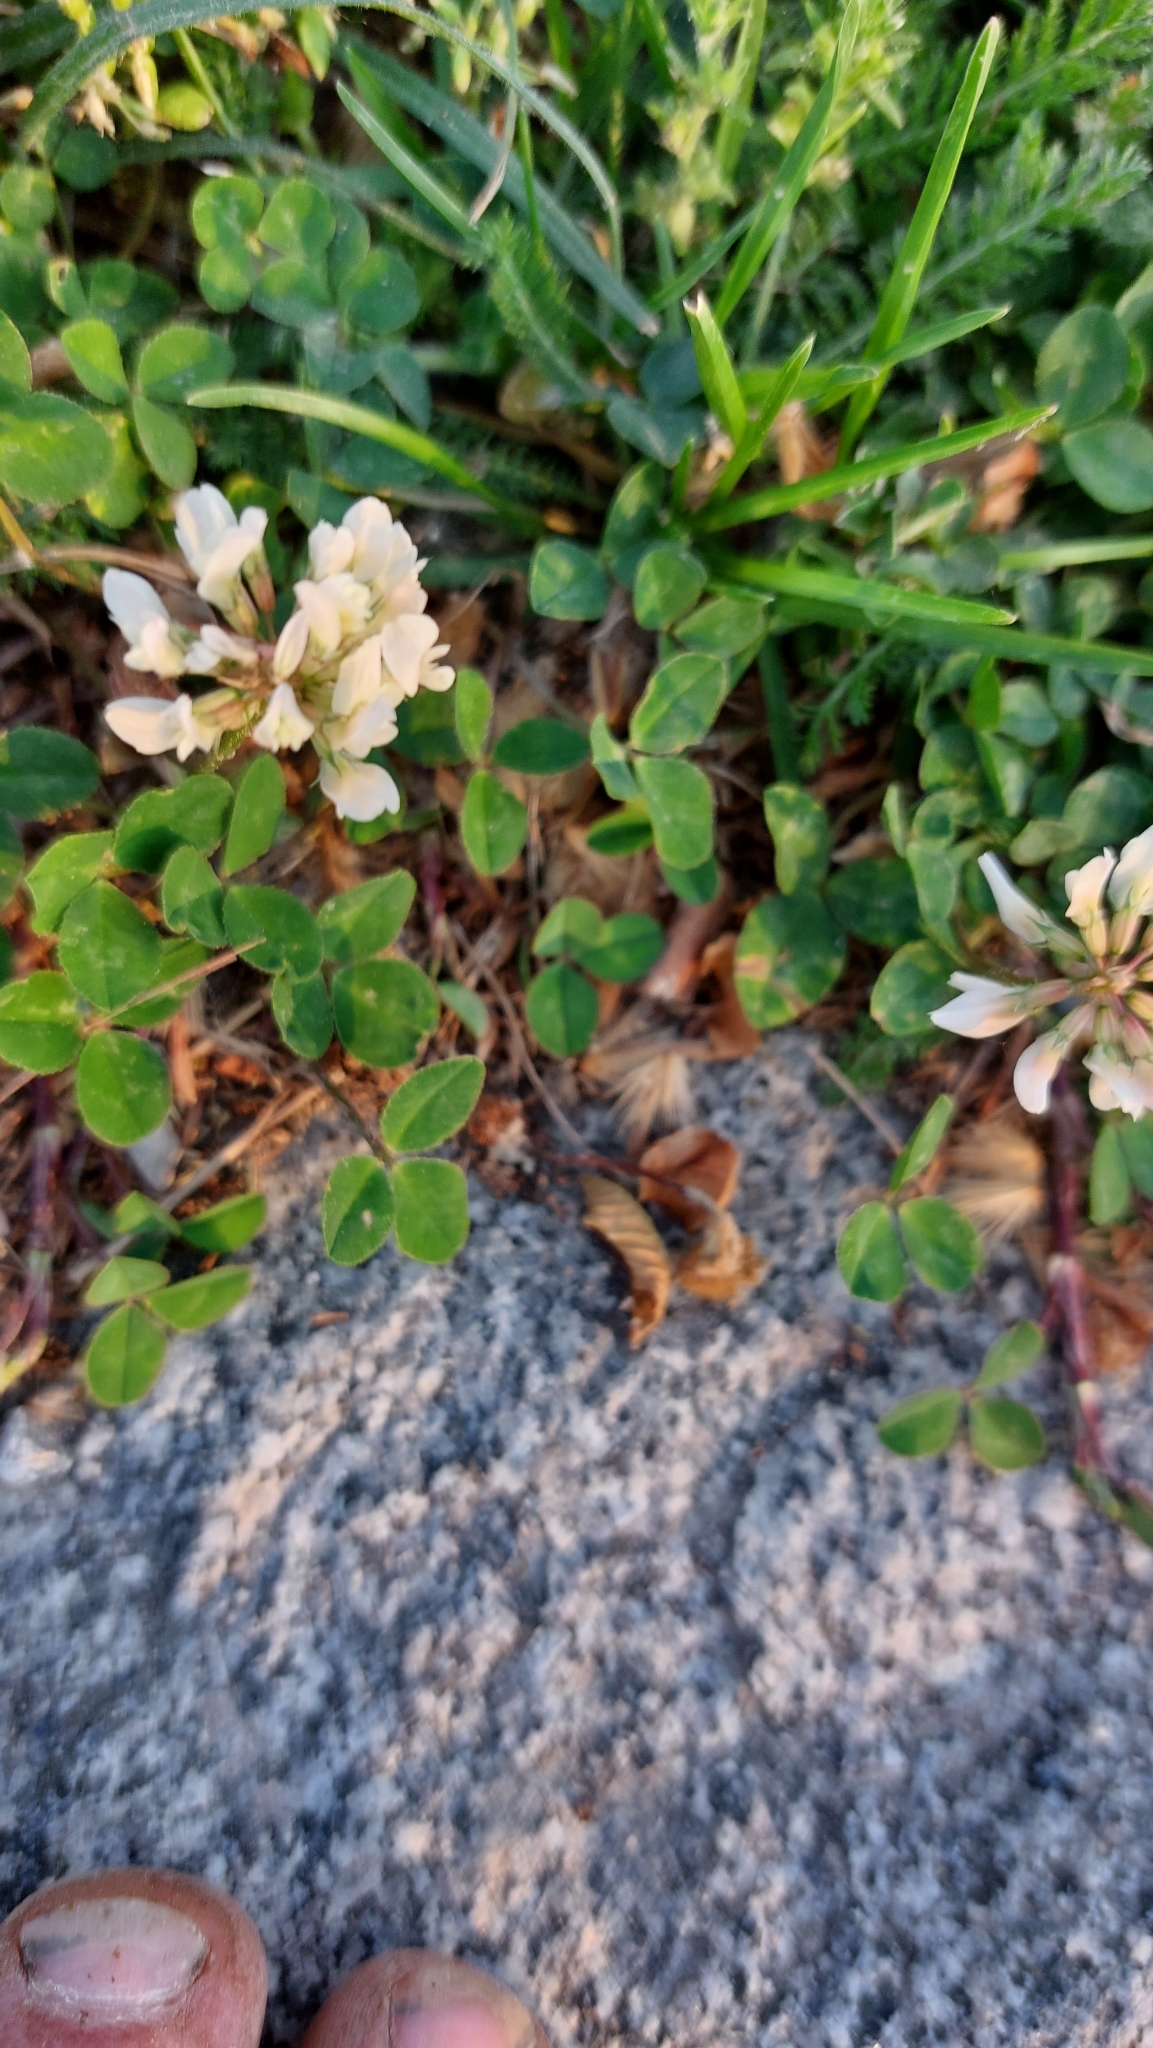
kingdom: Plantae
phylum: Tracheophyta
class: Magnoliopsida
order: Fabales
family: Fabaceae
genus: Trifolium
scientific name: Trifolium repens
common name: White clover
